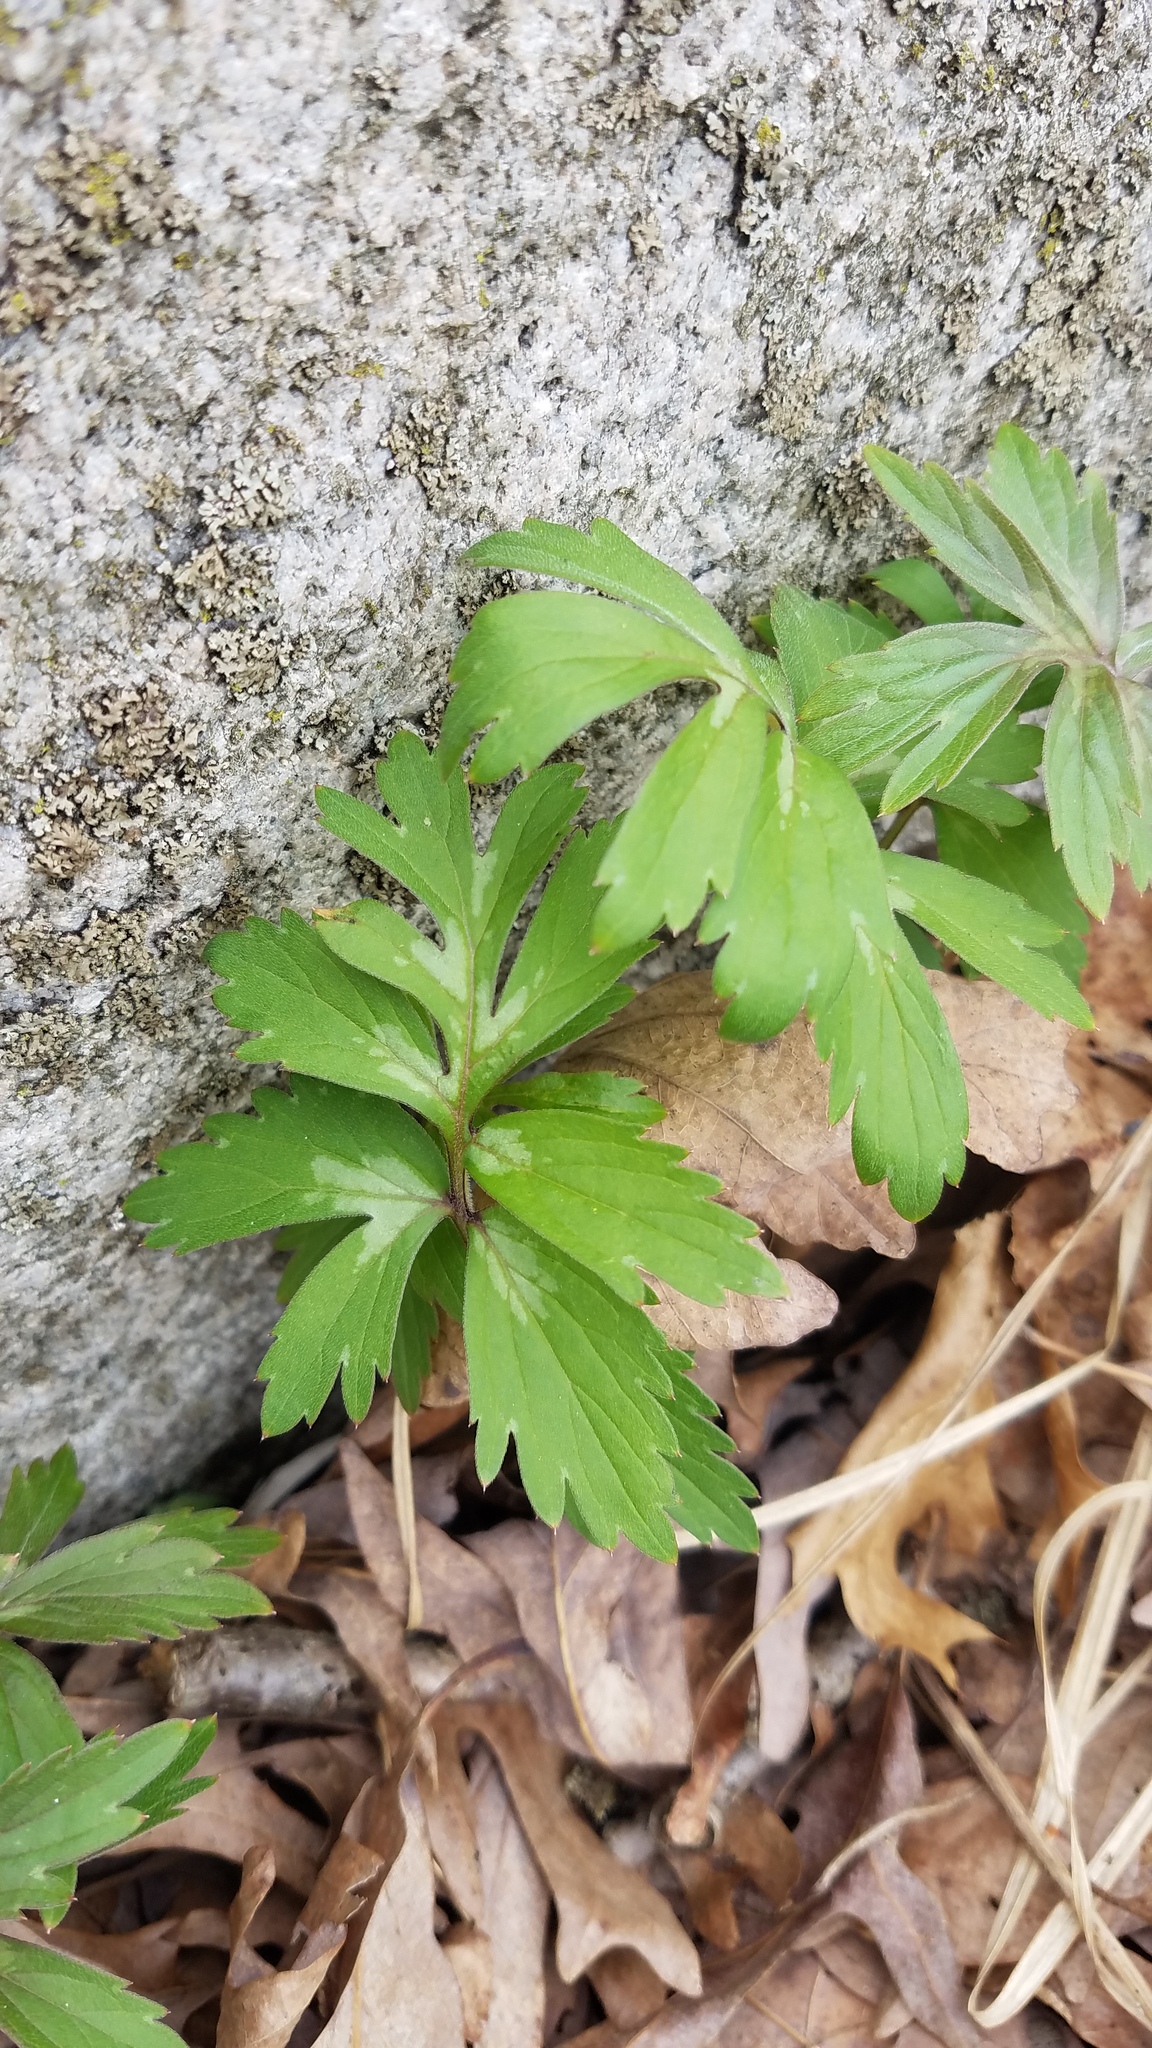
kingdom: Plantae
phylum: Tracheophyta
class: Magnoliopsida
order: Boraginales
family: Hydrophyllaceae
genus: Hydrophyllum
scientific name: Hydrophyllum virginianum
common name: Virginia waterleaf
